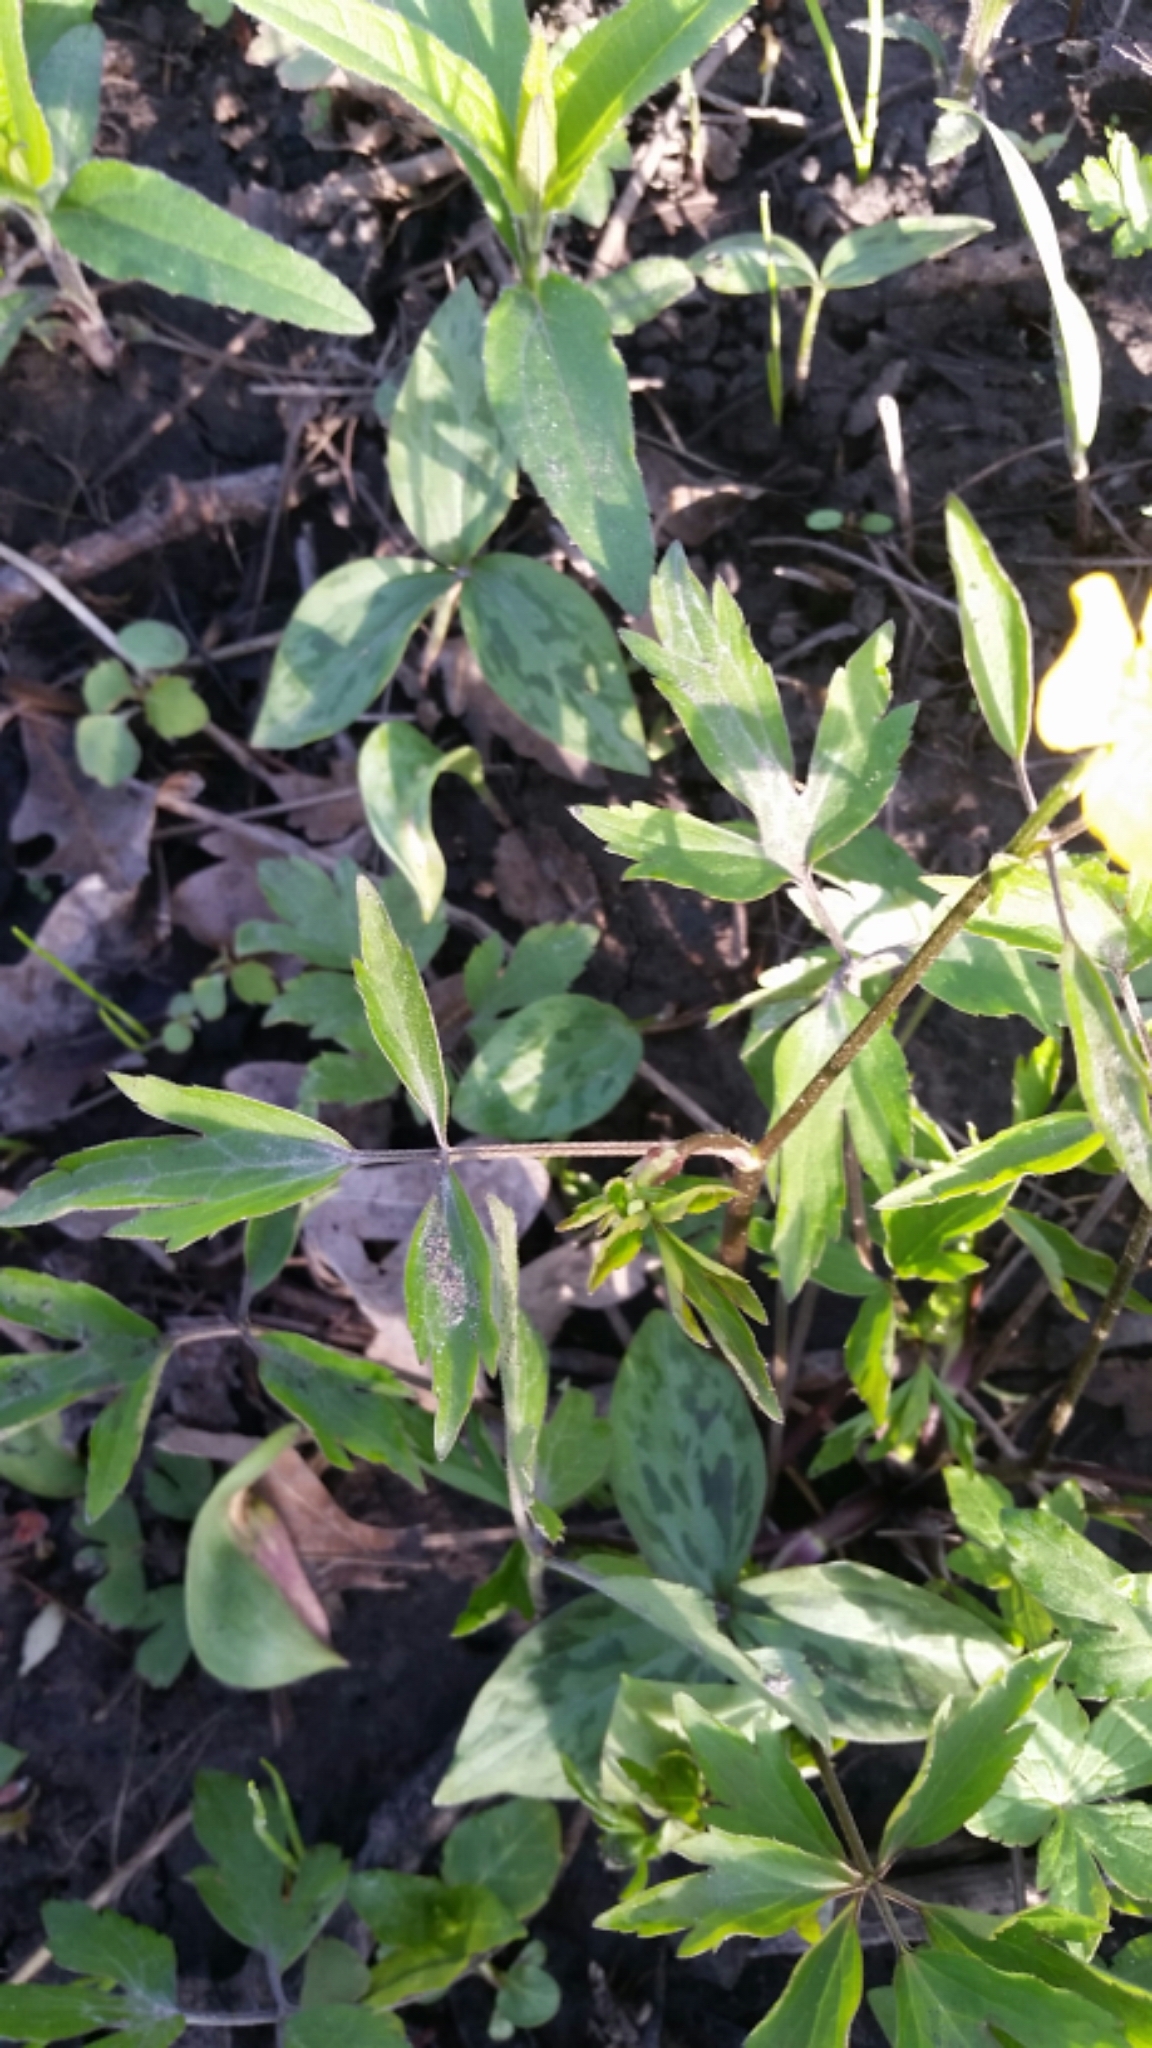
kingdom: Plantae
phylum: Tracheophyta
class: Magnoliopsida
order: Ranunculales
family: Ranunculaceae
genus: Ranunculus
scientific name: Ranunculus hispidus
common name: Bristly buttercup
